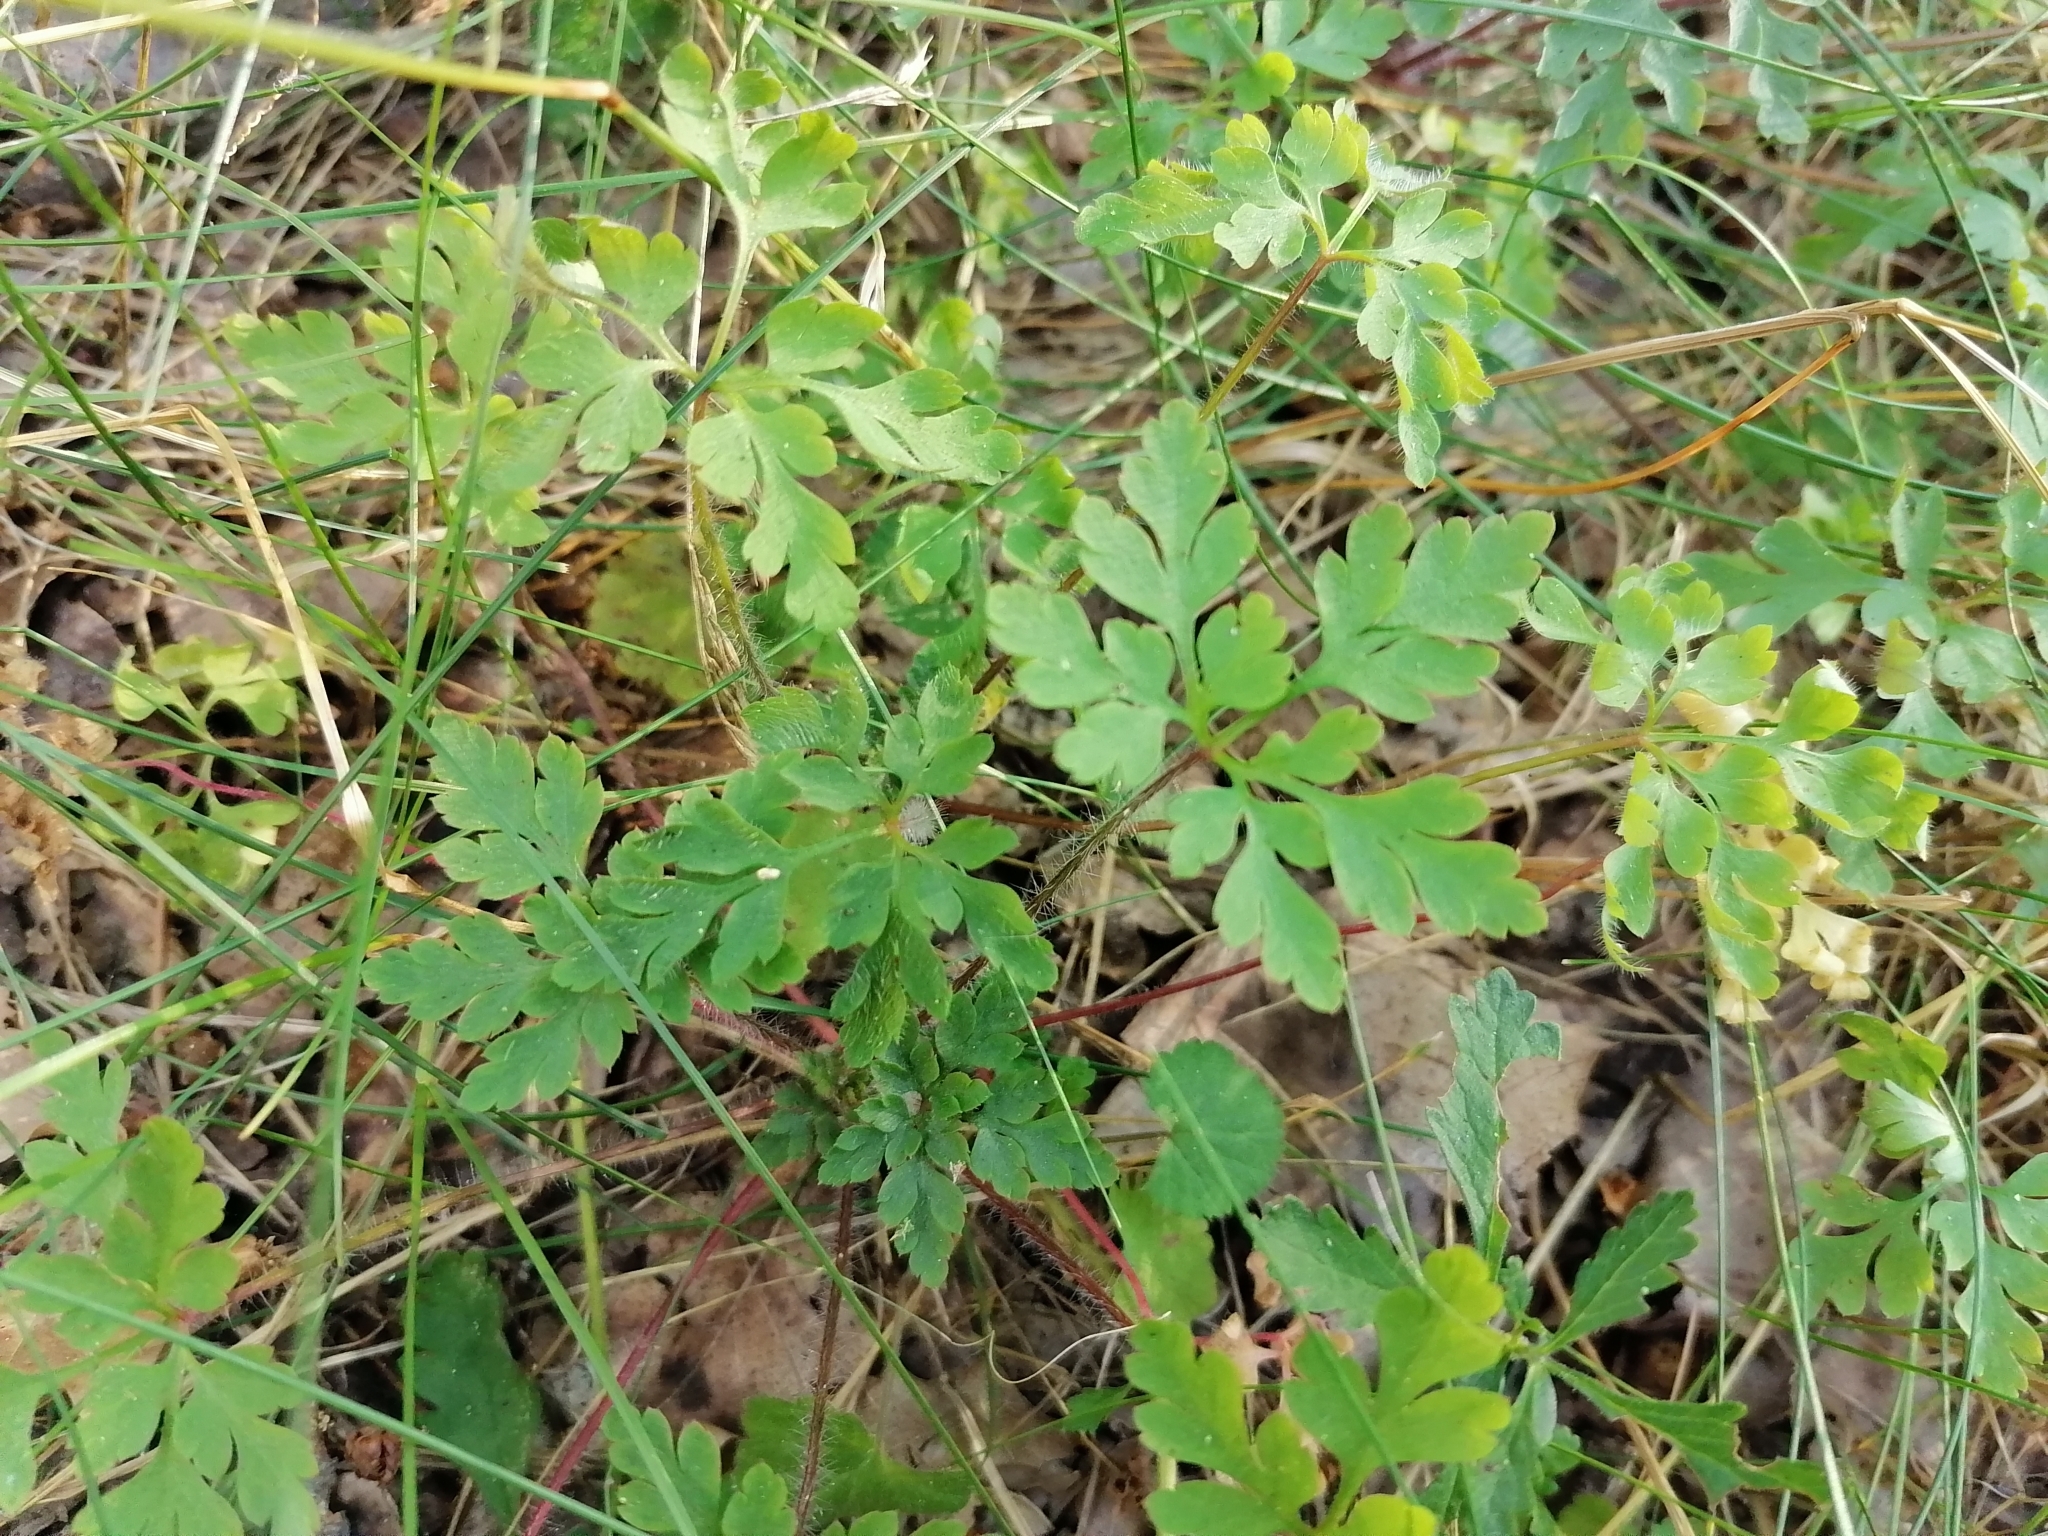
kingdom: Plantae
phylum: Tracheophyta
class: Magnoliopsida
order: Geraniales
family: Geraniaceae
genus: Geranium
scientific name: Geranium robertianum
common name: Herb-robert
